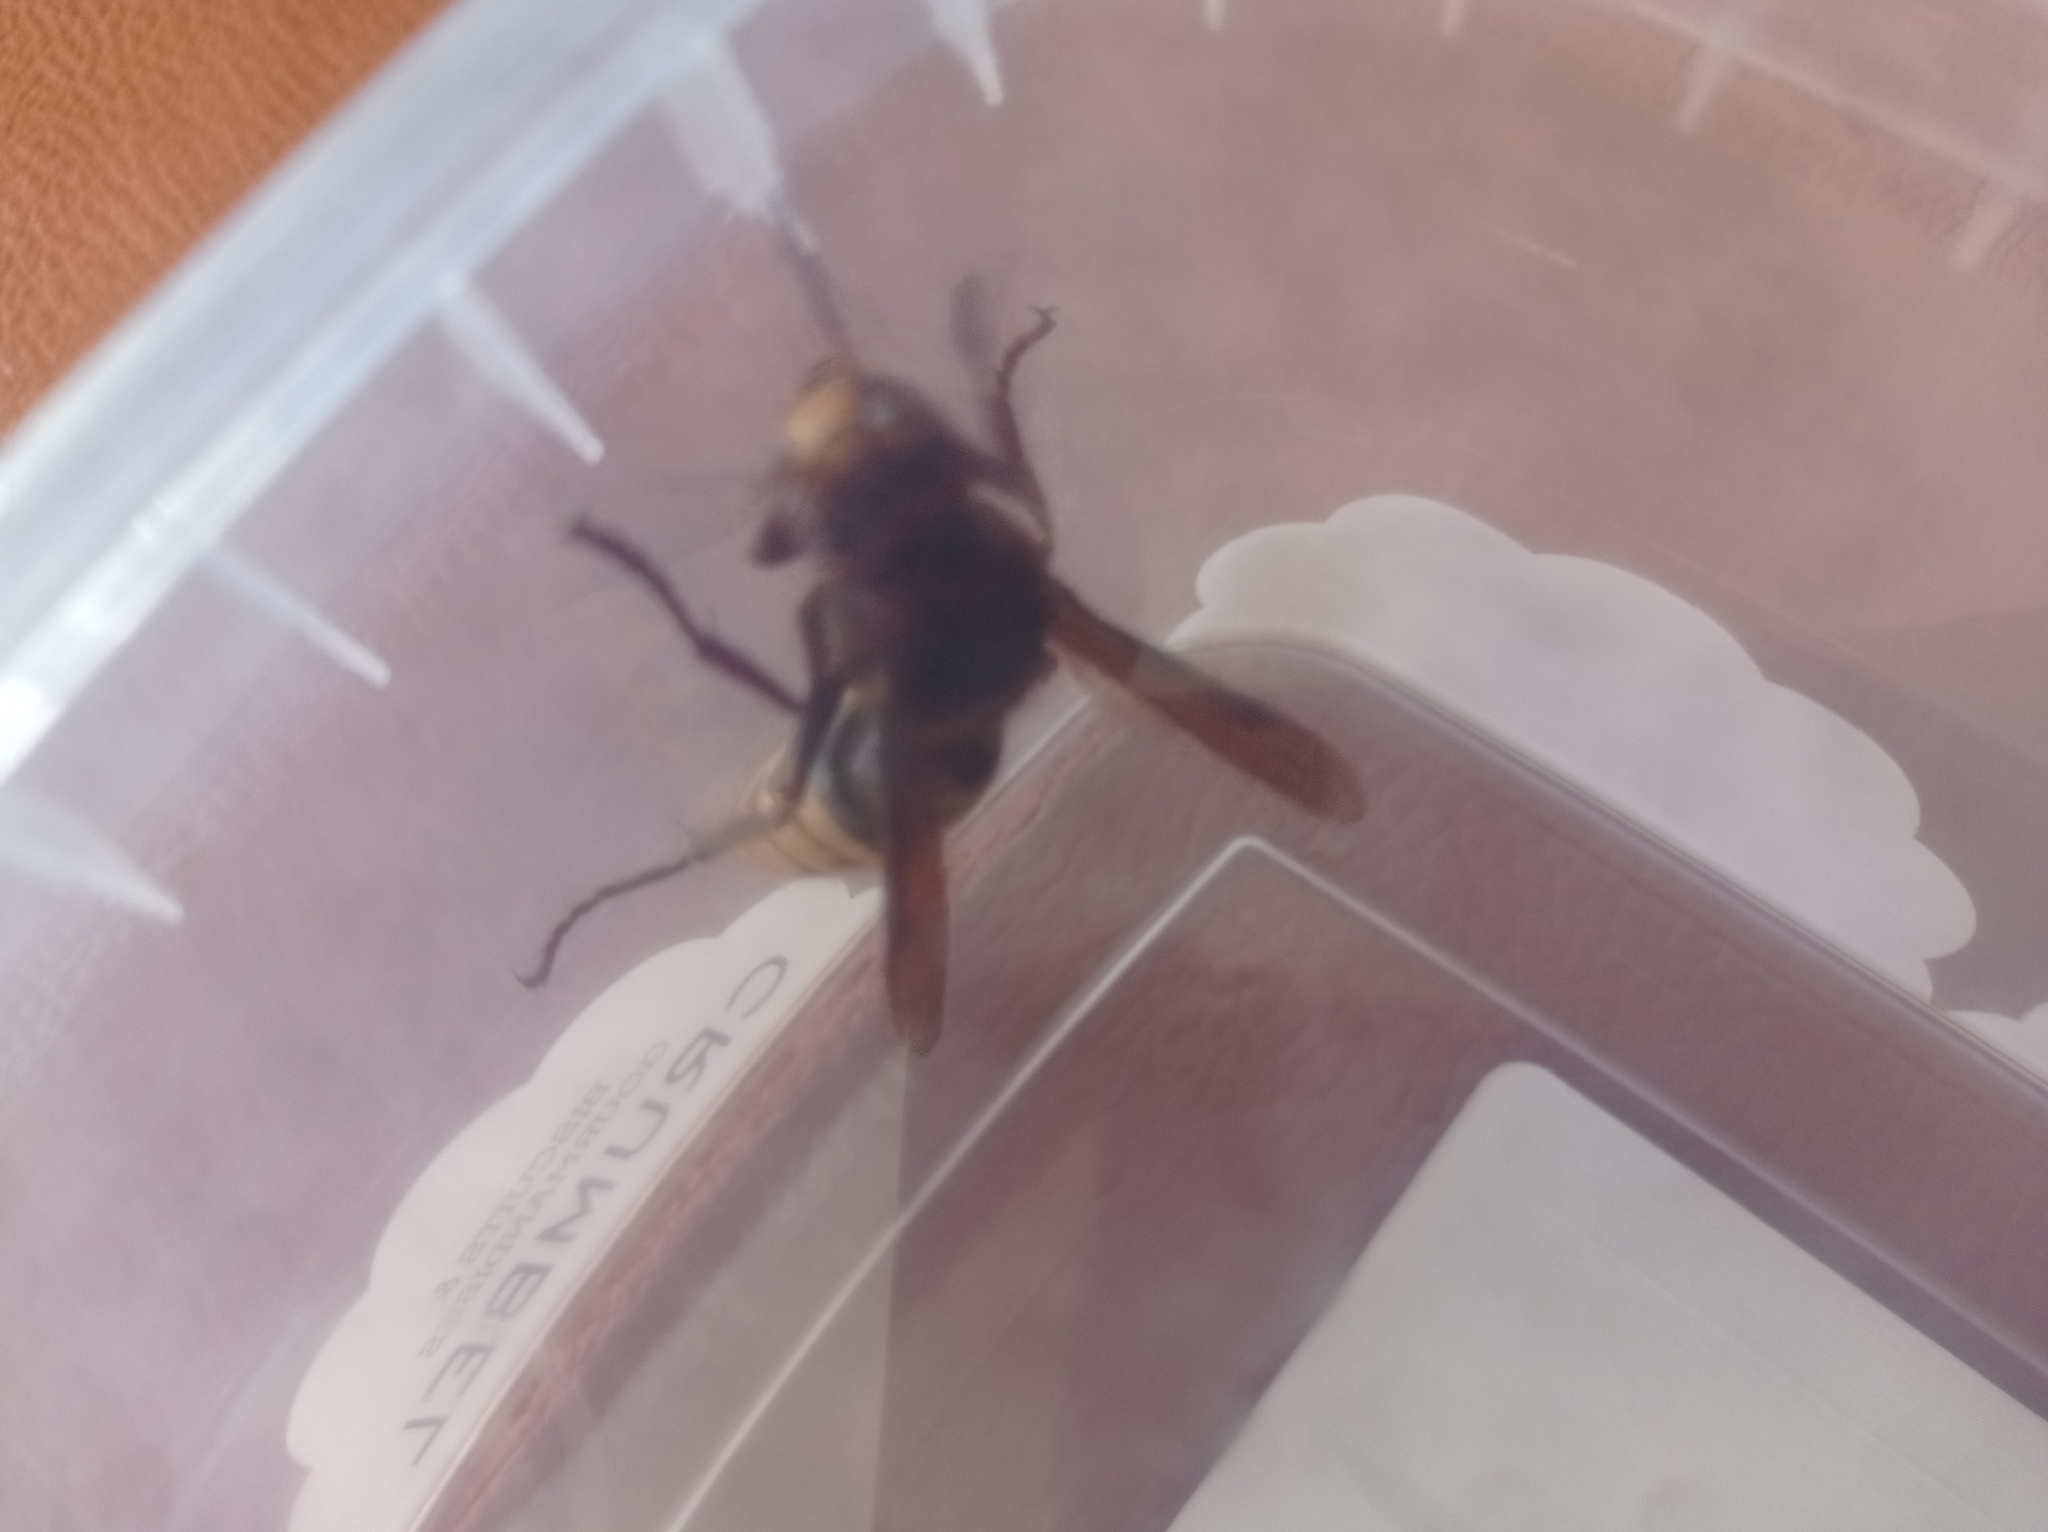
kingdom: Animalia
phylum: Arthropoda
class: Insecta
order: Hymenoptera
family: Vespidae
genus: Vespa
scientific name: Vespa crabro
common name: Hornet
